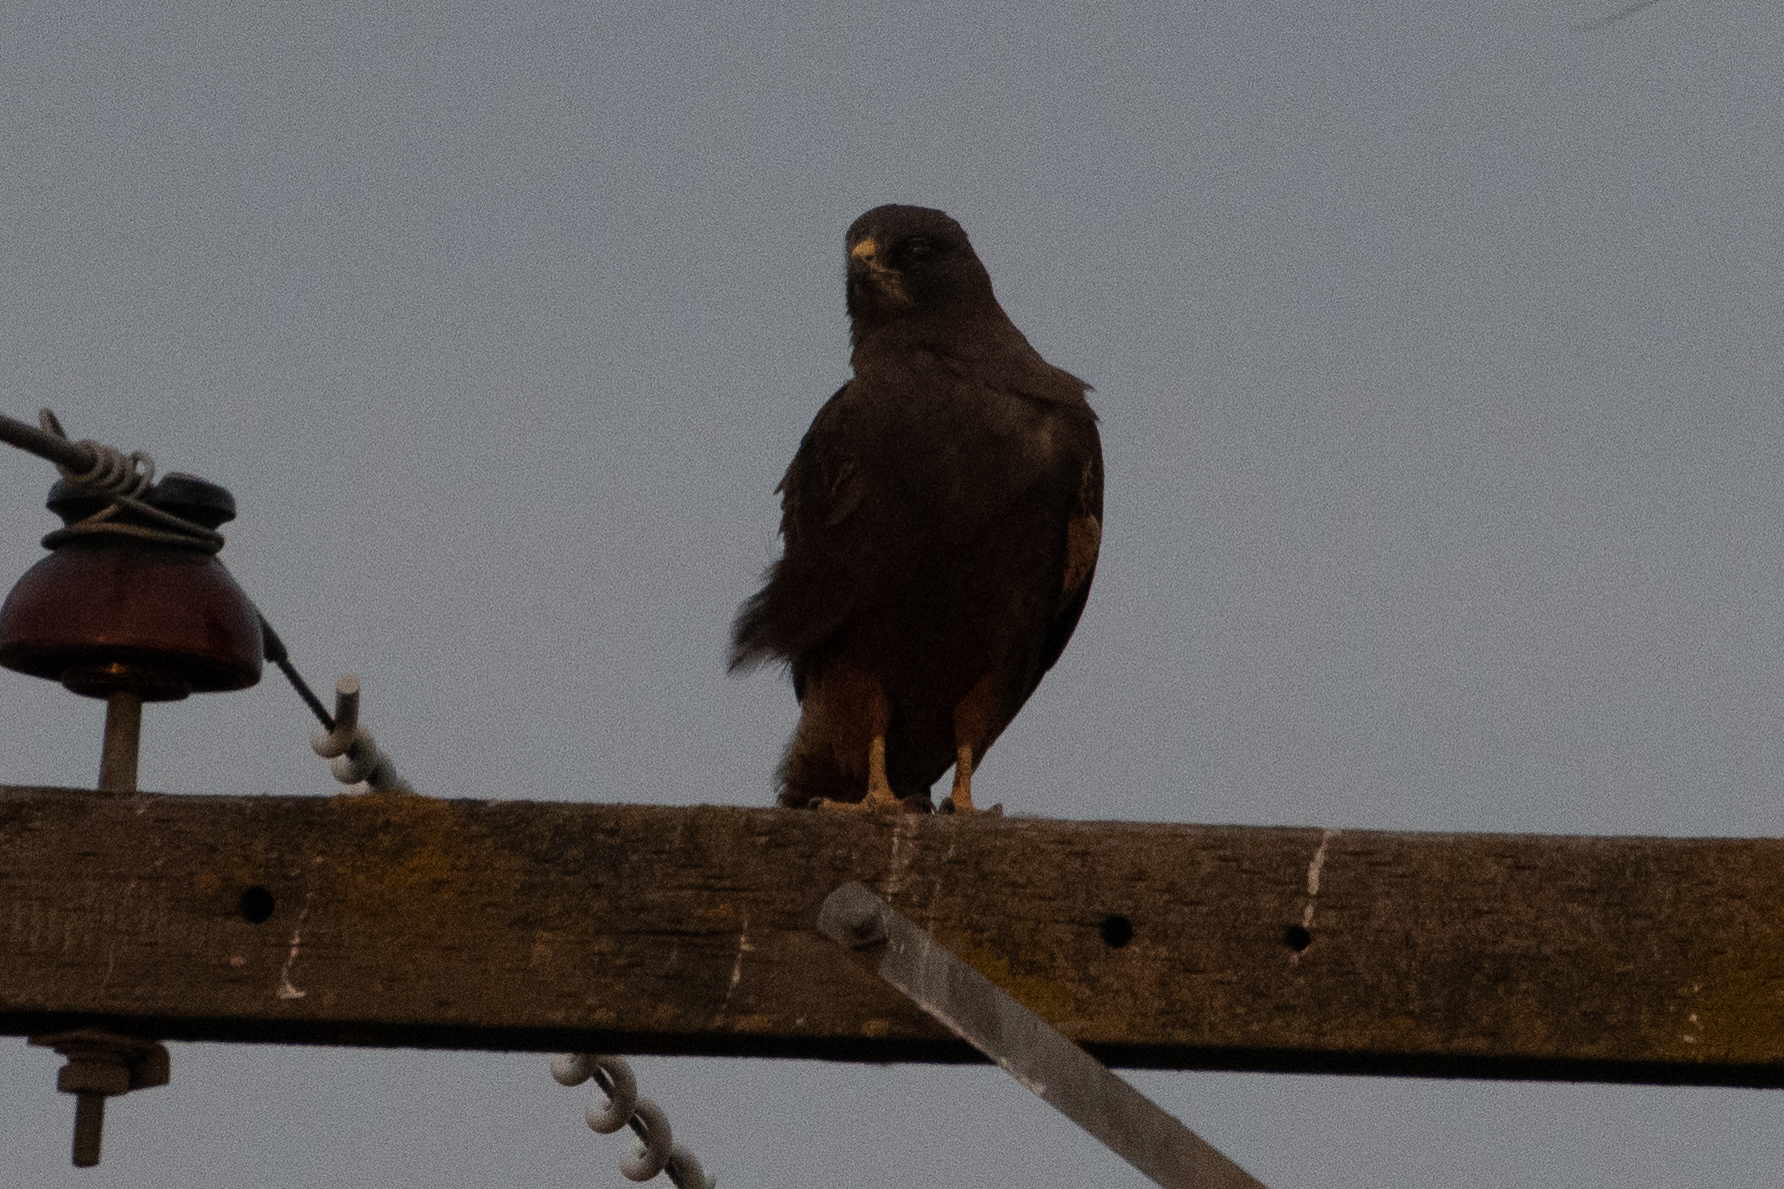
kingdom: Animalia
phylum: Chordata
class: Aves
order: Accipitriformes
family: Accipitridae
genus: Buteo
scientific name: Buteo swainsoni
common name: Swainson's hawk
